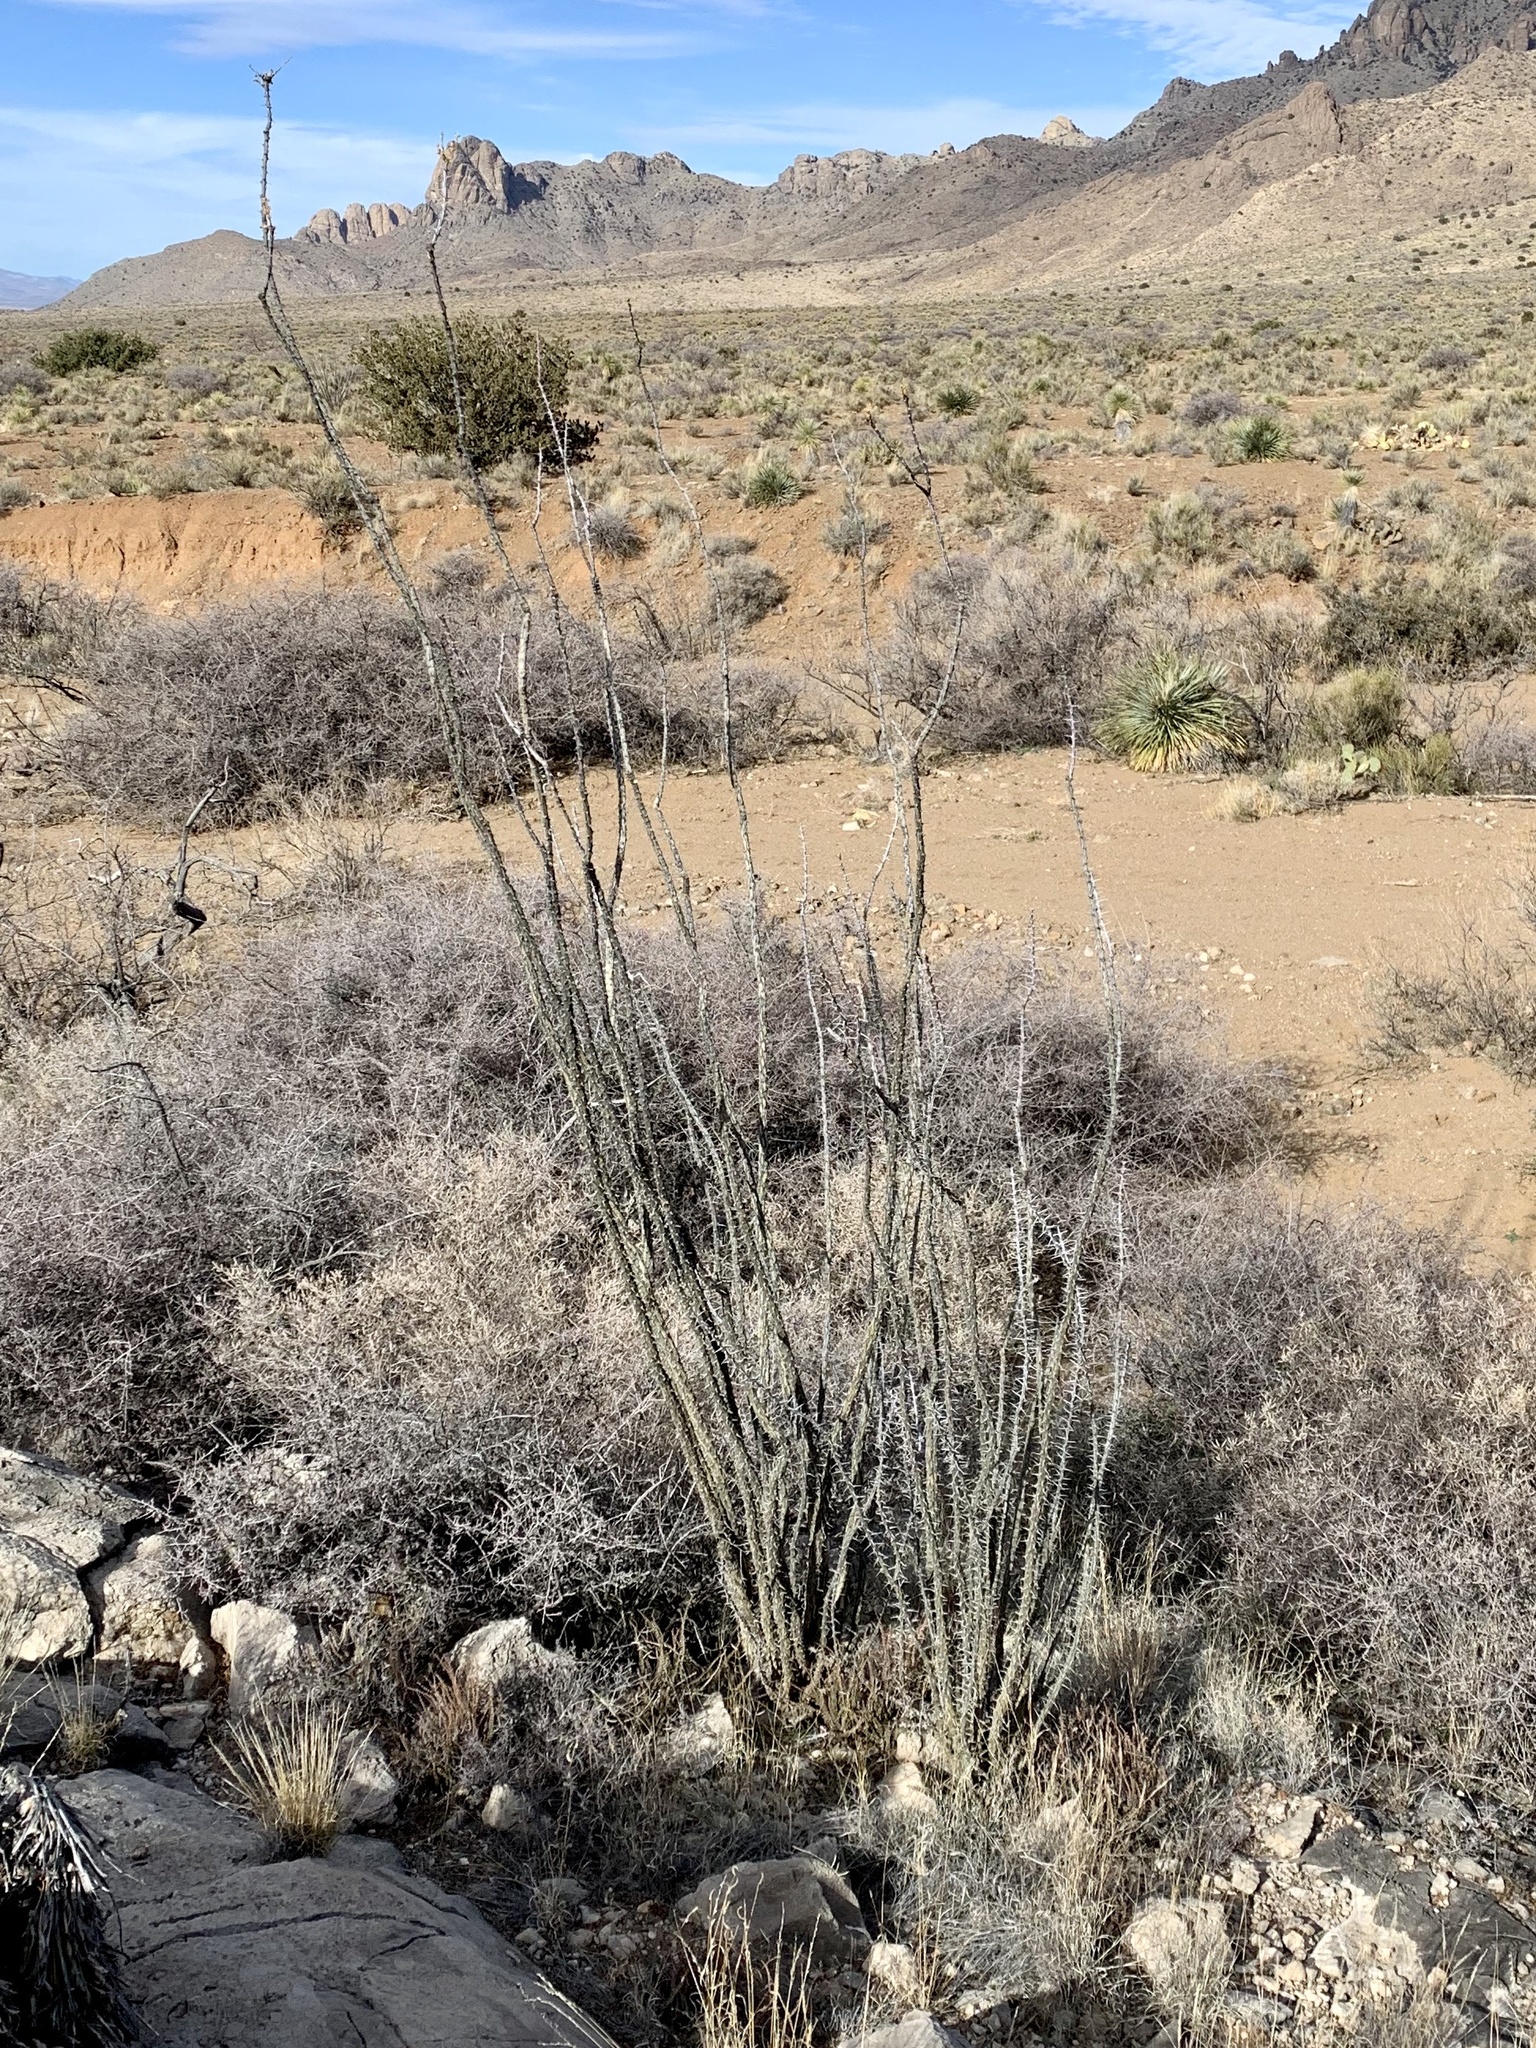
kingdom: Plantae
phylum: Tracheophyta
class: Magnoliopsida
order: Ericales
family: Fouquieriaceae
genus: Fouquieria
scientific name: Fouquieria splendens
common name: Vine-cactus
